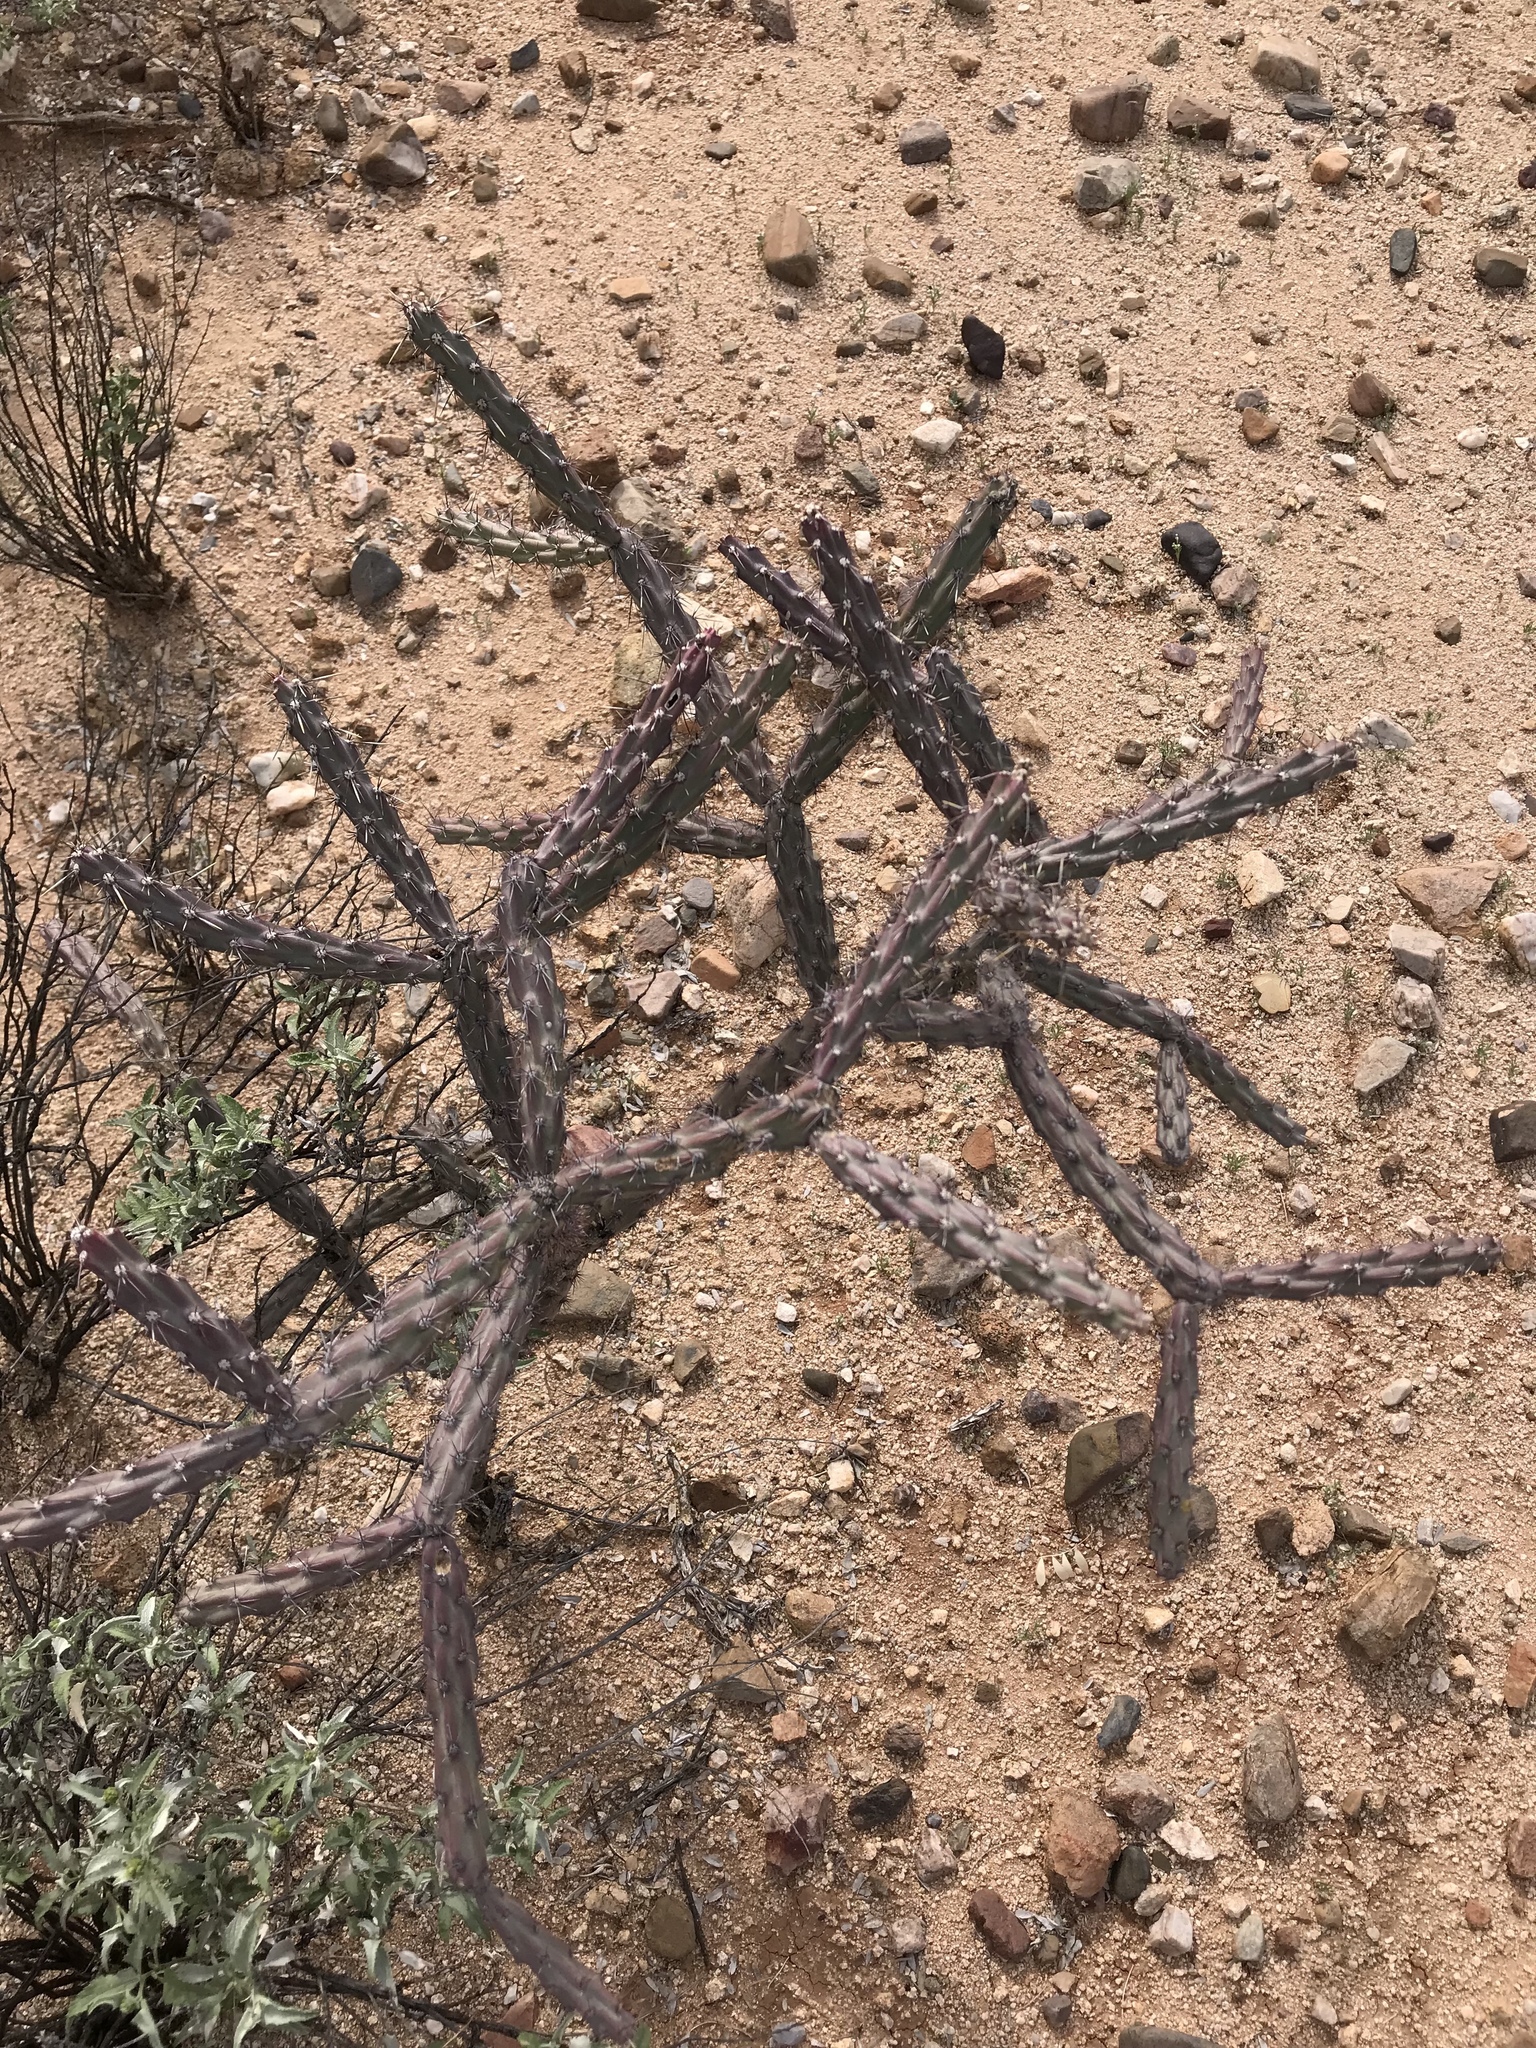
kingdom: Plantae
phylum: Tracheophyta
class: Magnoliopsida
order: Caryophyllales
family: Cactaceae
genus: Cylindropuntia
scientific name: Cylindropuntia thurberi
